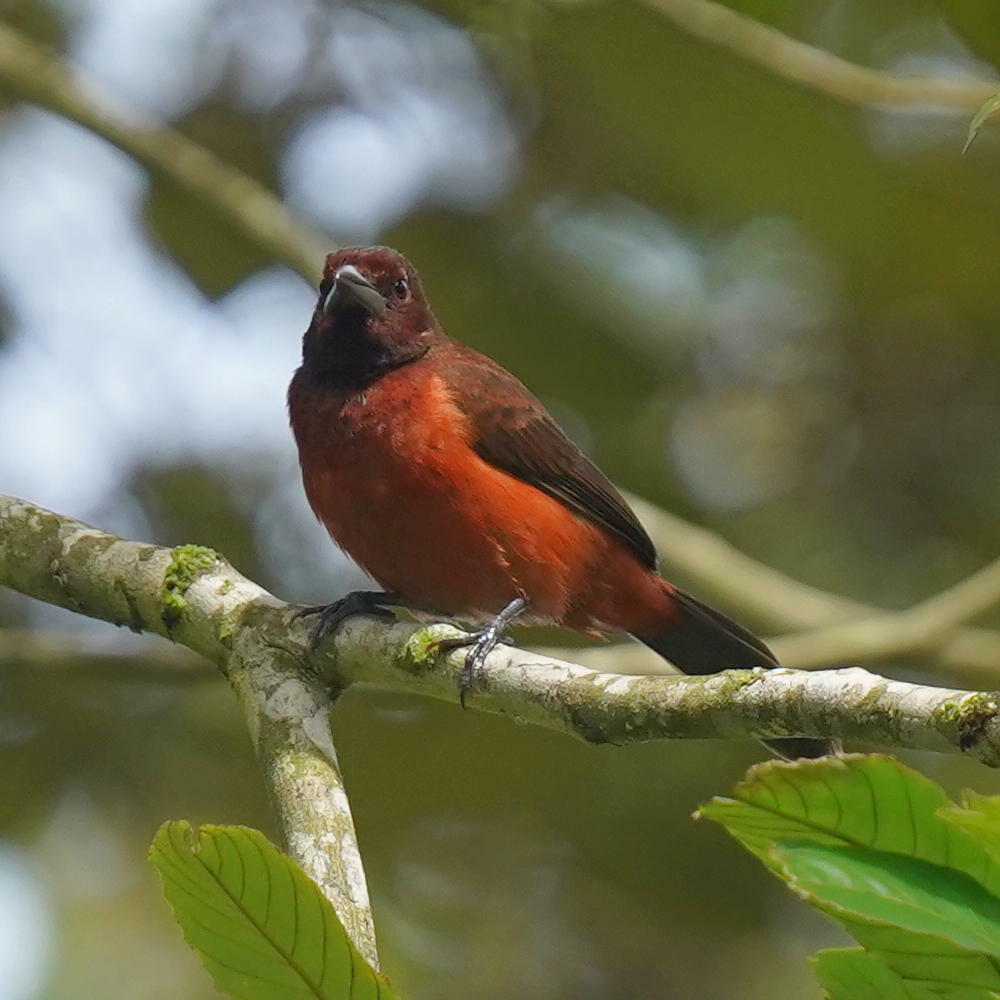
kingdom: Animalia
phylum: Chordata
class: Aves
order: Passeriformes
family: Thraupidae
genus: Ramphocelus
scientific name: Ramphocelus dimidiatus
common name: Crimson-backed tanager
